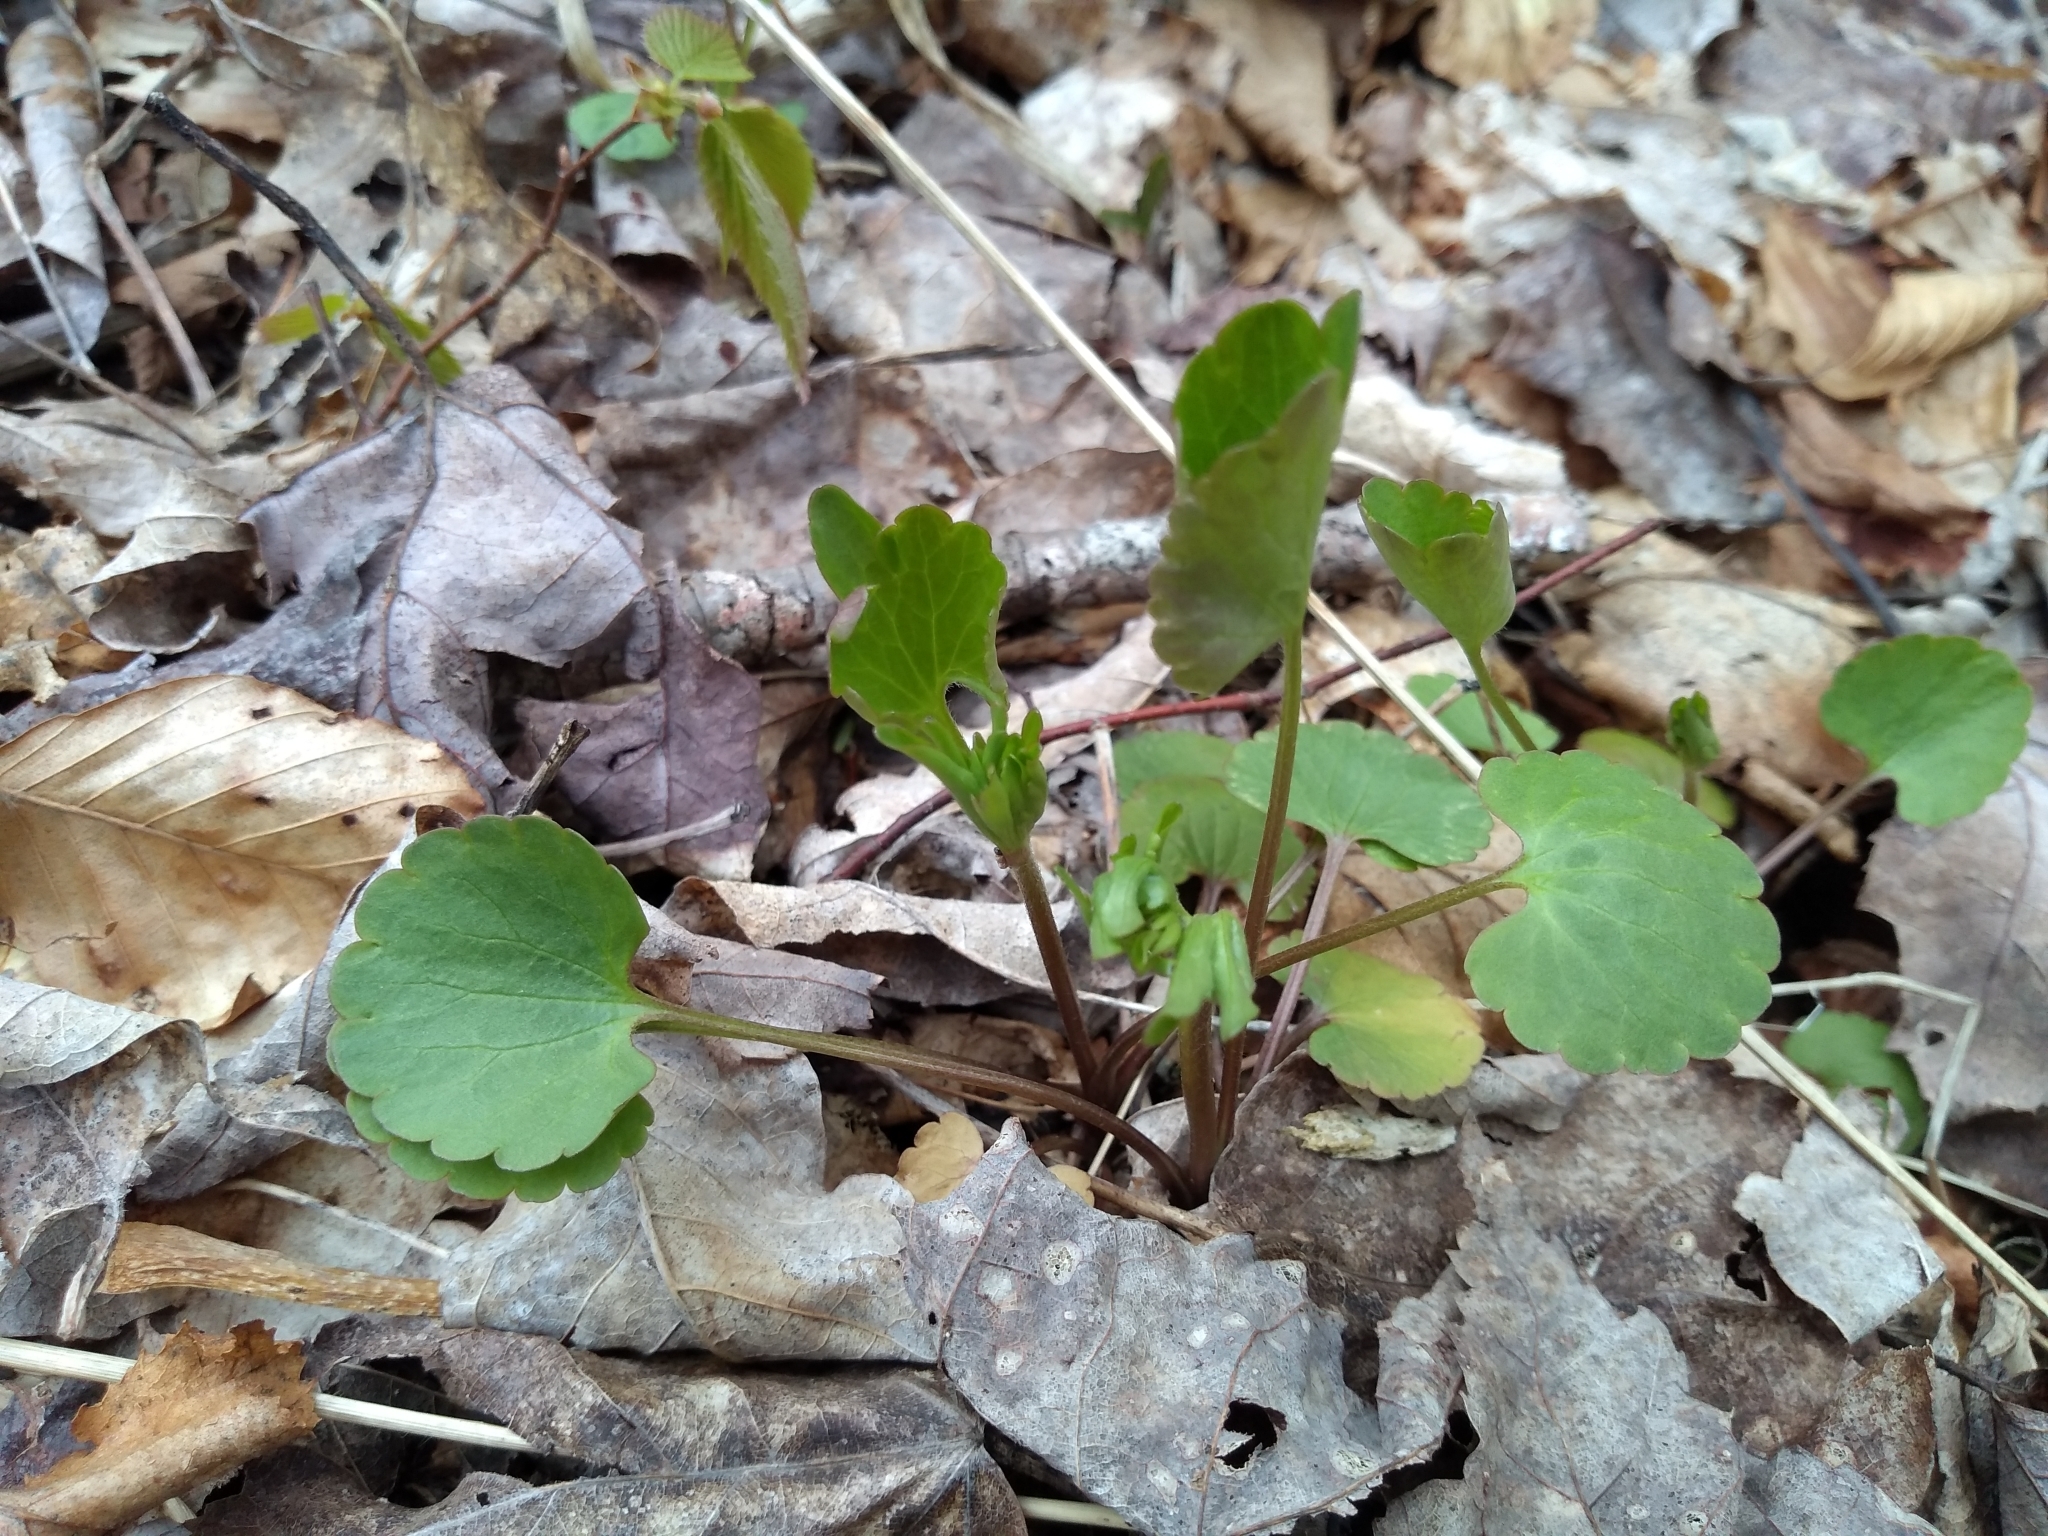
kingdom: Plantae
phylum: Tracheophyta
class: Magnoliopsida
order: Ranunculales
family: Ranunculaceae
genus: Ranunculus
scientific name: Ranunculus abortivus
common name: Early wood buttercup
